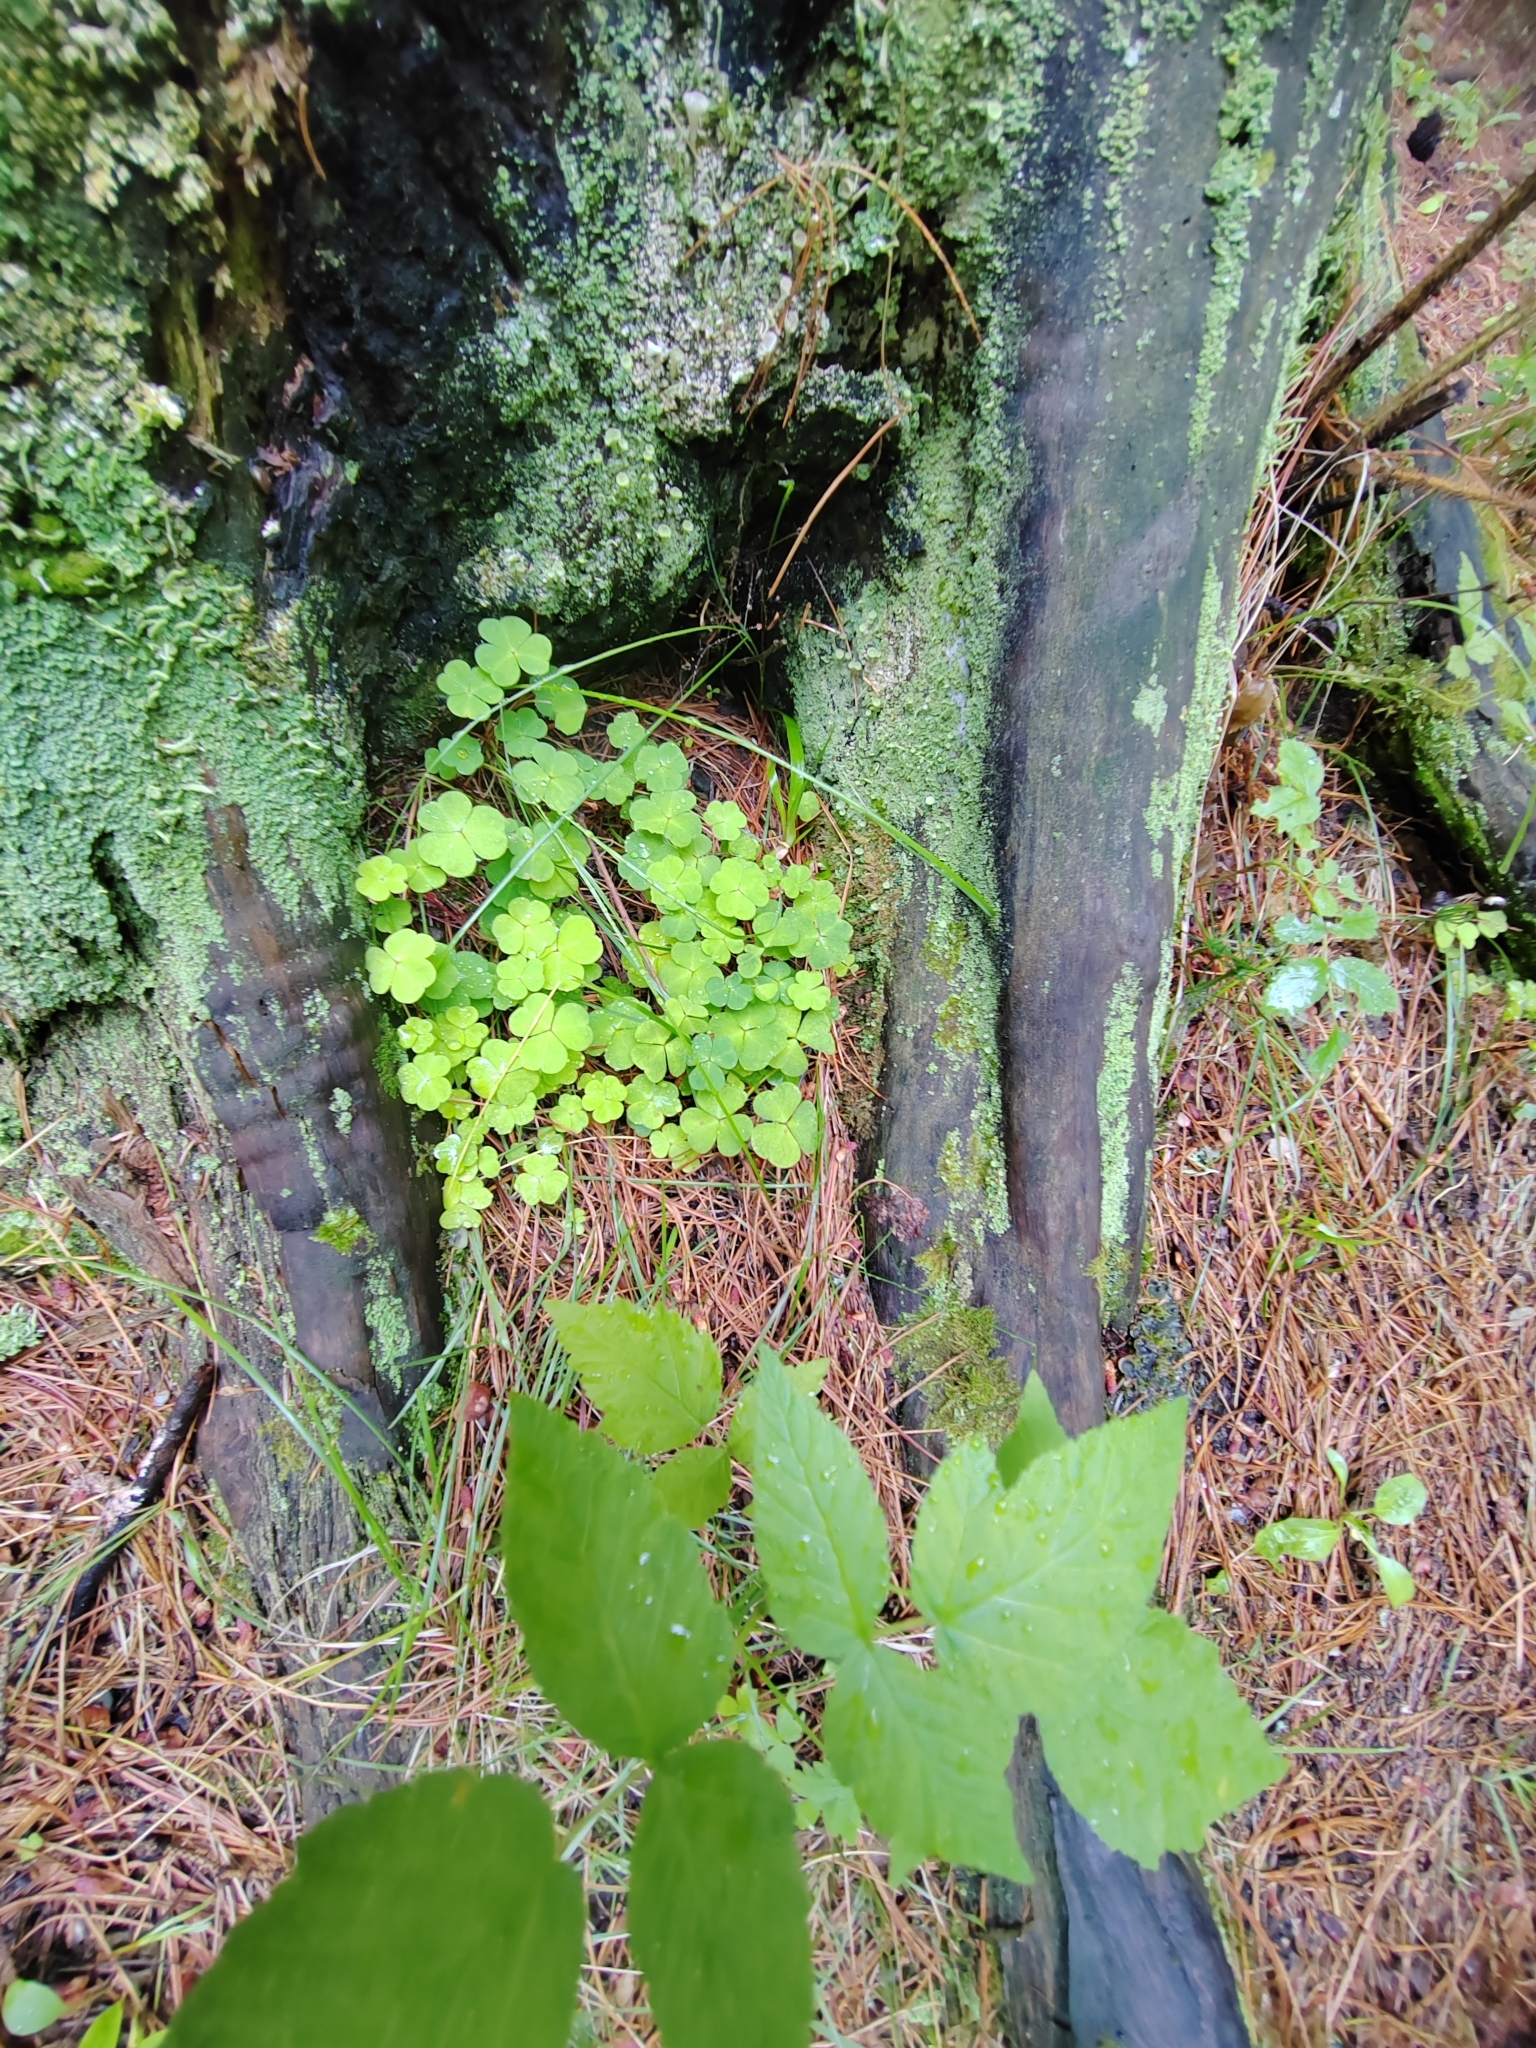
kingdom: Plantae
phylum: Tracheophyta
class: Magnoliopsida
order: Oxalidales
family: Oxalidaceae
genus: Oxalis
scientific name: Oxalis acetosella
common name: Wood-sorrel
